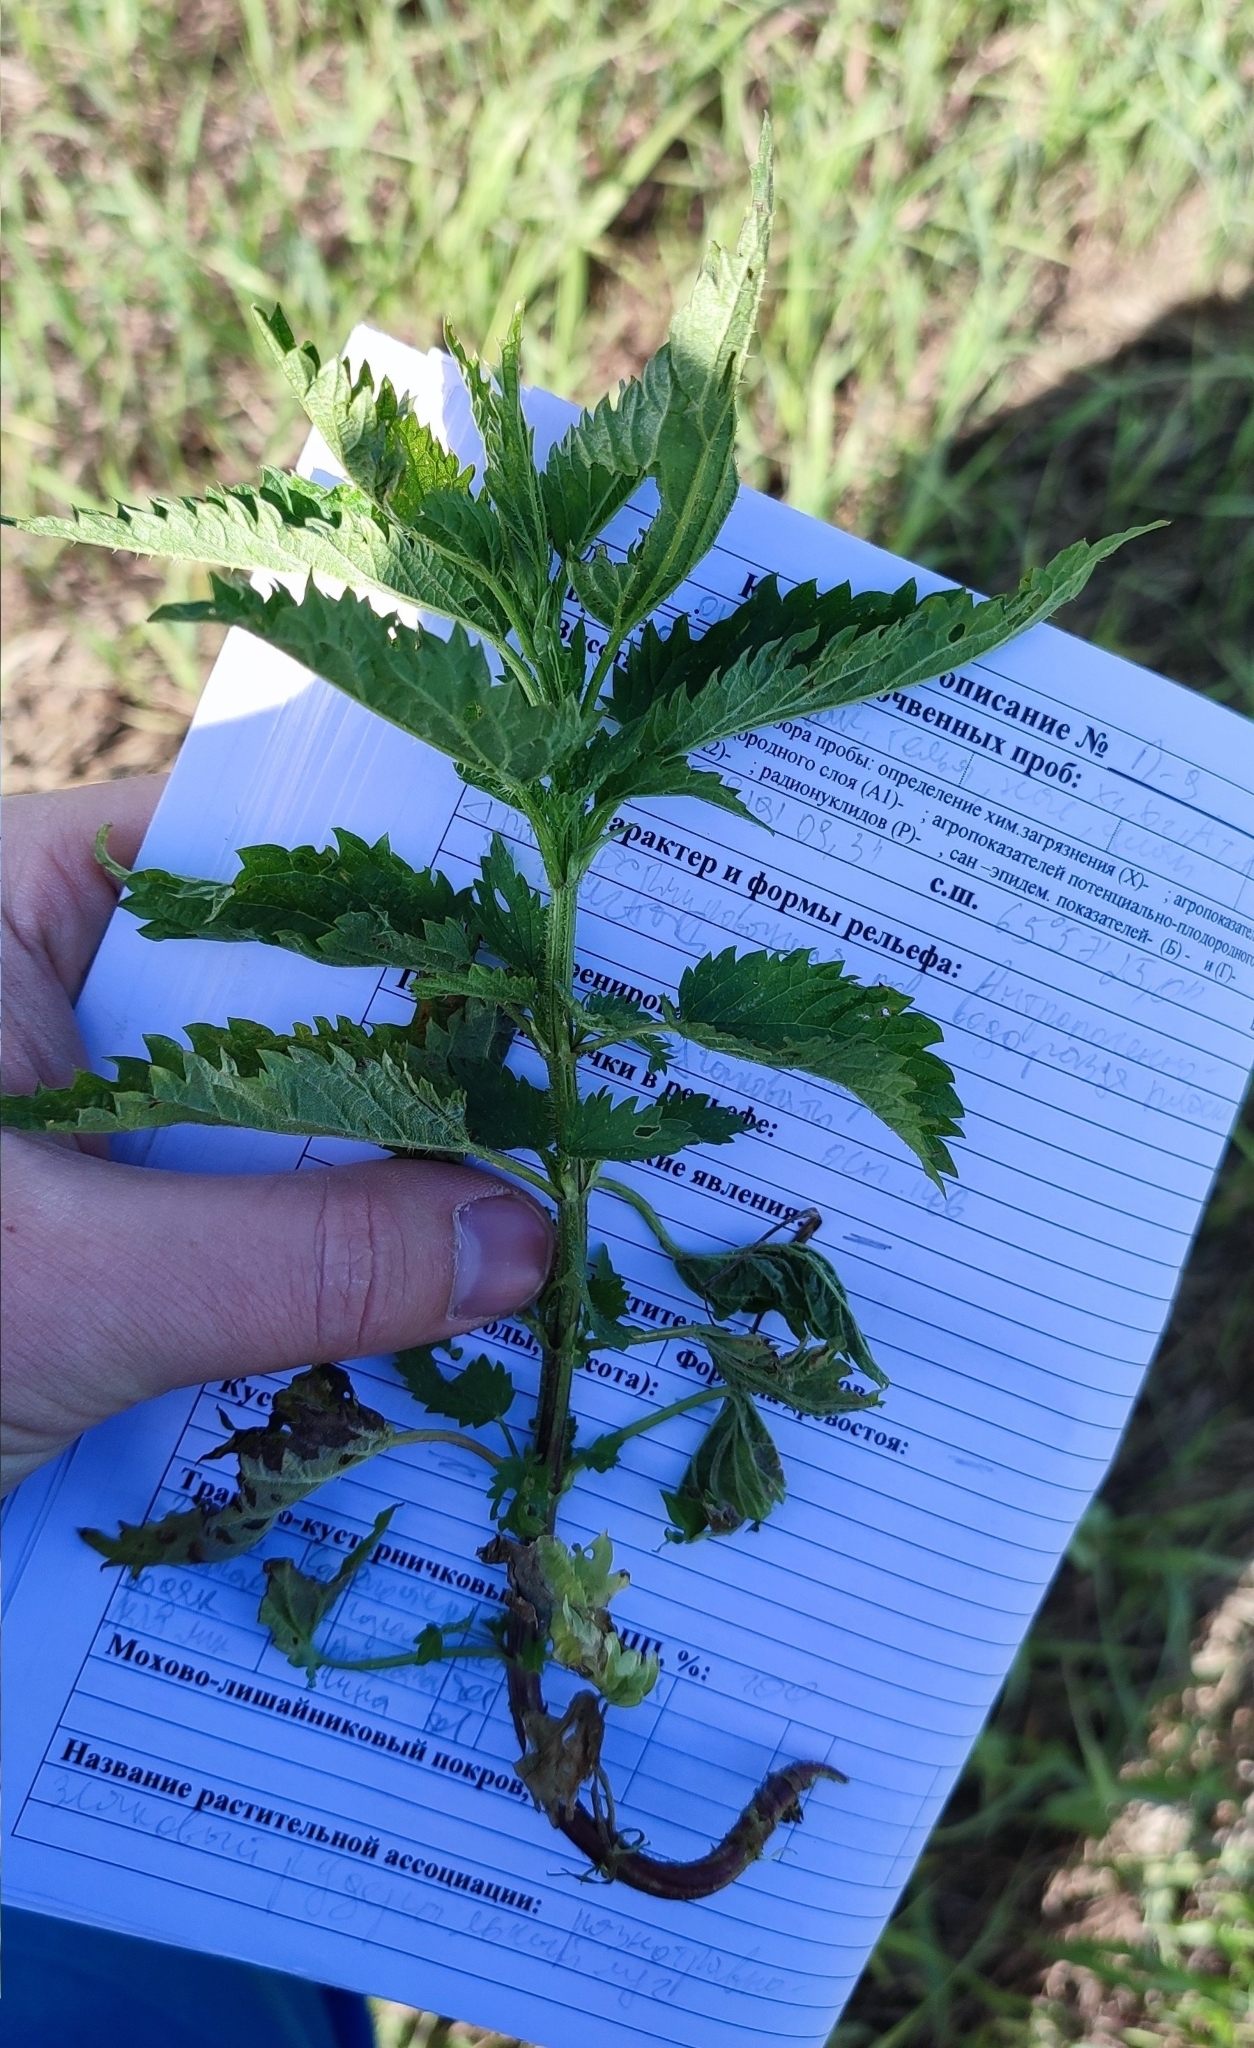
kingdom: Plantae
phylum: Tracheophyta
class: Magnoliopsida
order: Rosales
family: Urticaceae
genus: Urtica
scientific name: Urtica dioica
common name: Common nettle
